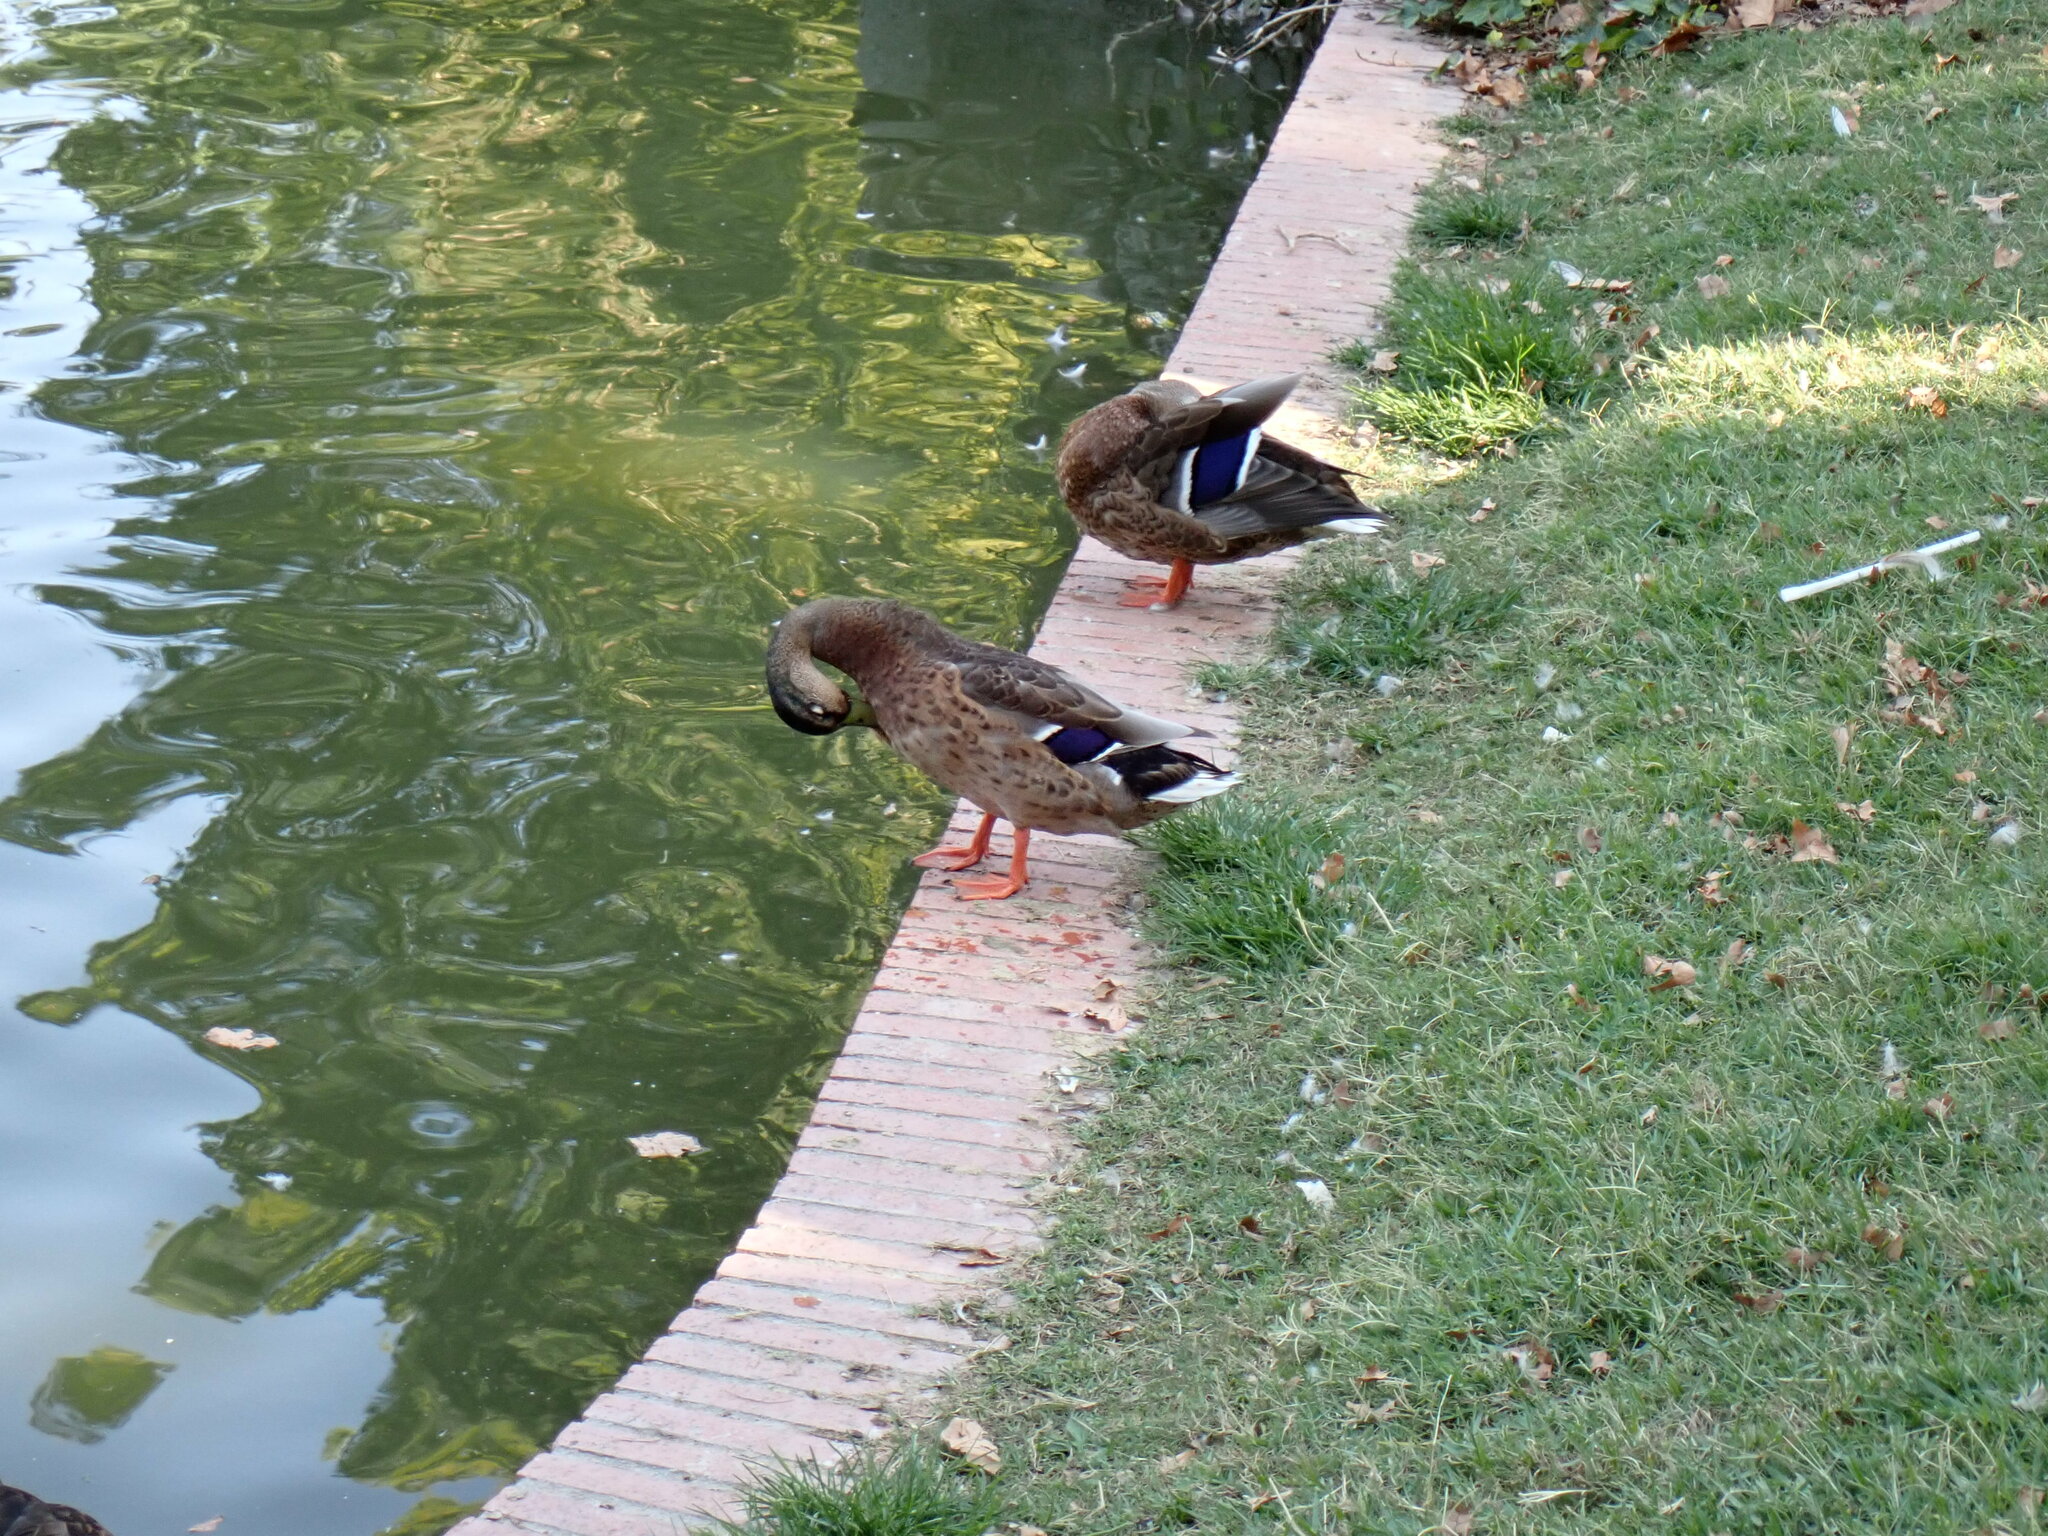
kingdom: Animalia
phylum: Chordata
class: Aves
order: Anseriformes
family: Anatidae
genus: Anas
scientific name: Anas platyrhynchos
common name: Mallard
